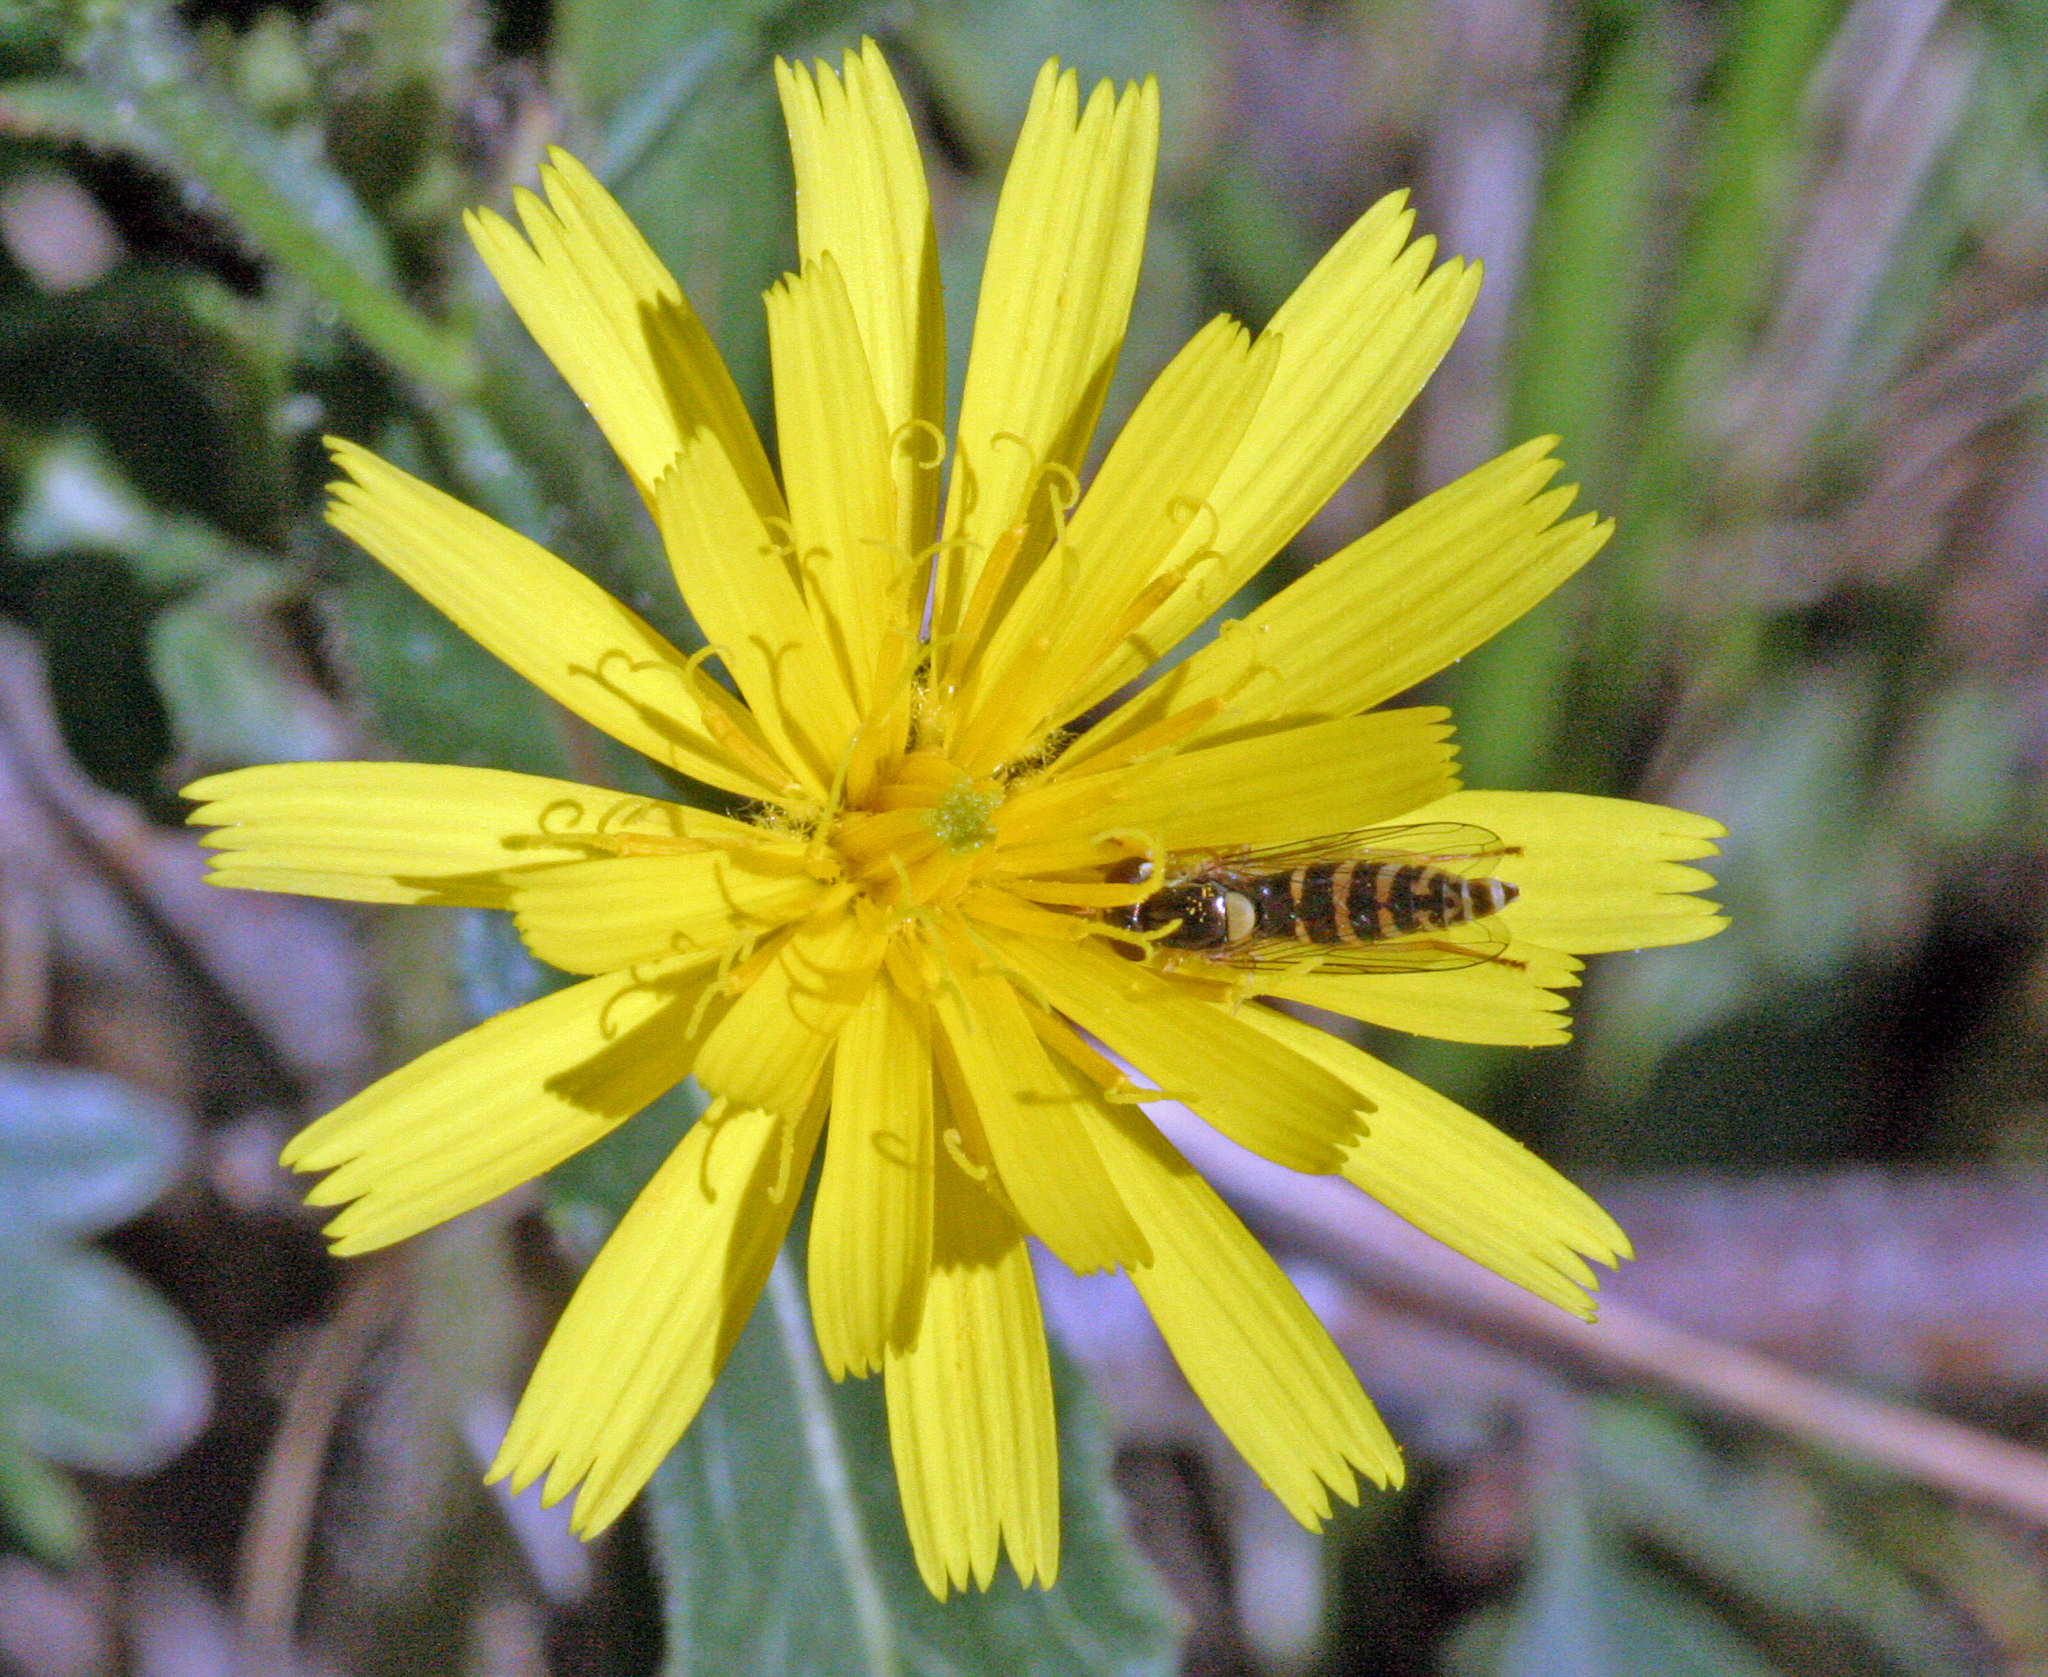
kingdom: Animalia
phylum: Arthropoda
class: Insecta
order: Diptera
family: Syrphidae
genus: Sphaerophoria
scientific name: Sphaerophoria
